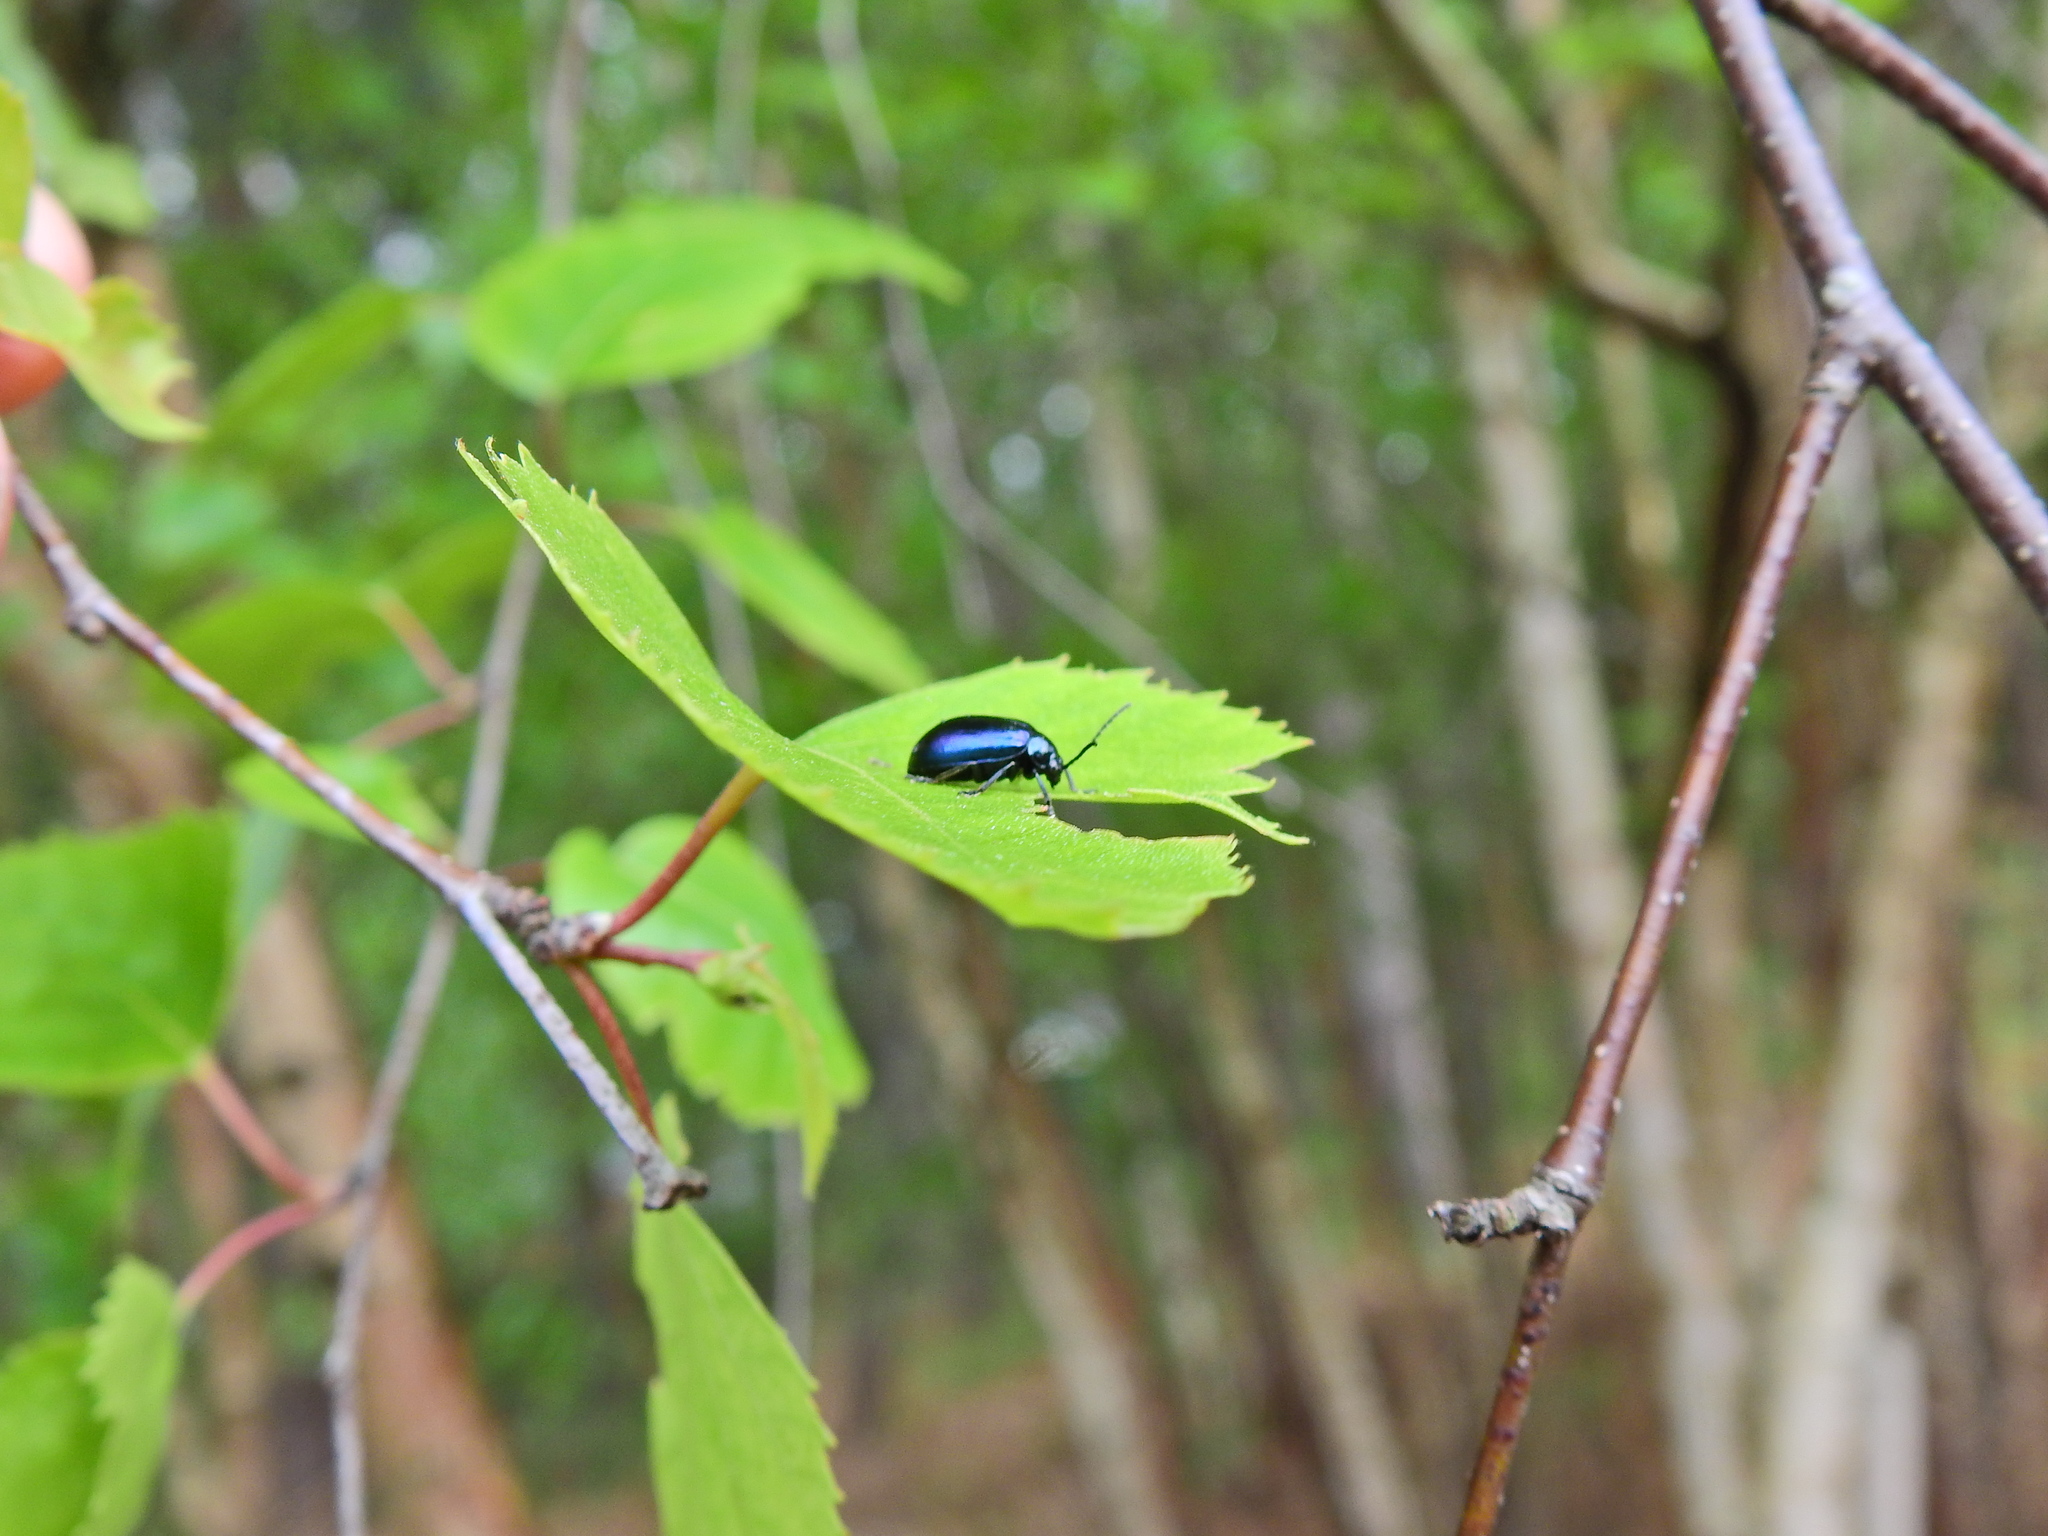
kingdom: Animalia
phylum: Arthropoda
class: Insecta
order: Coleoptera
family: Chrysomelidae
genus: Agelastica
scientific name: Agelastica alni
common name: Alder leaf beetle
